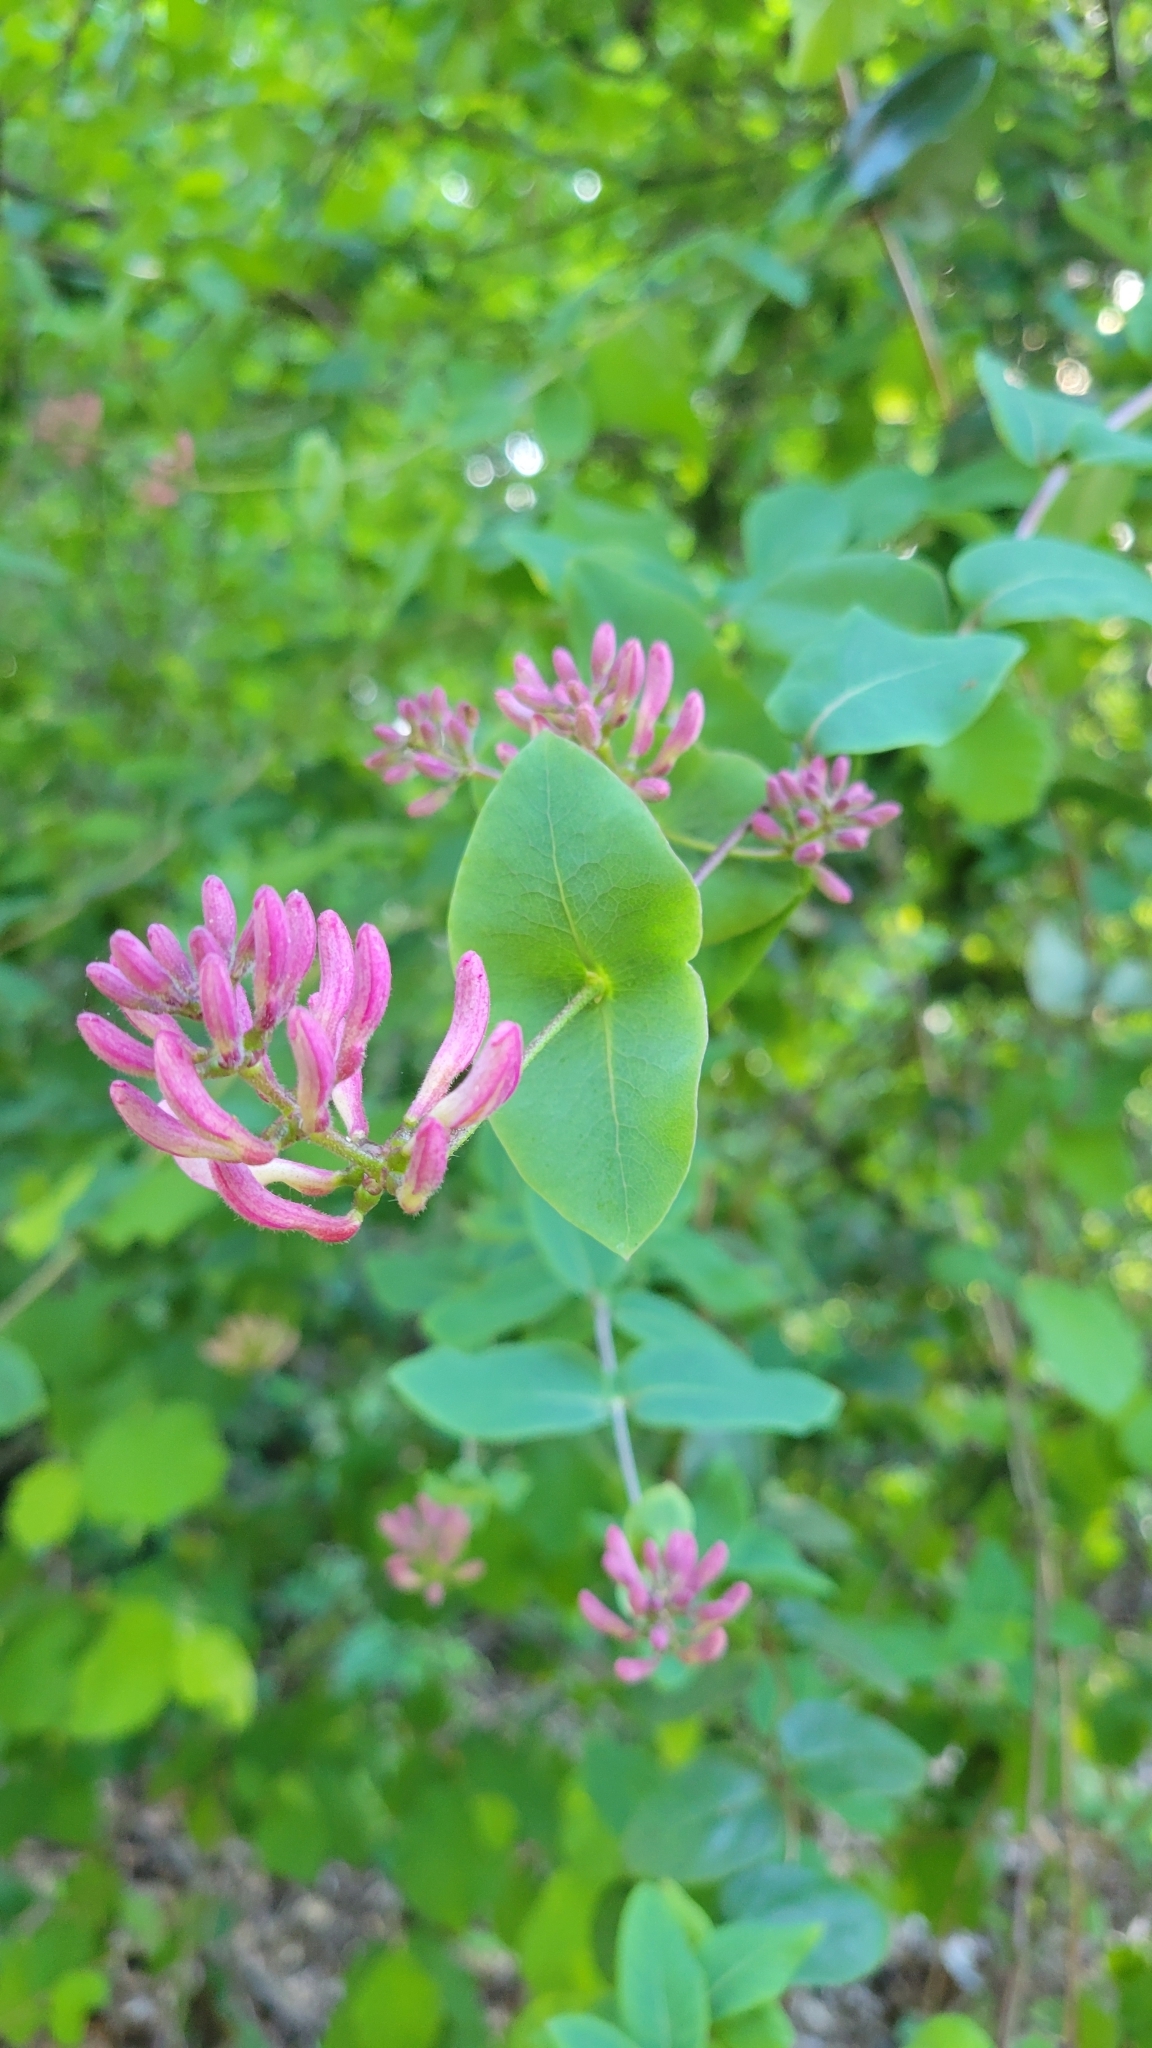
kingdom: Plantae
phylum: Tracheophyta
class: Magnoliopsida
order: Dipsacales
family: Caprifoliaceae
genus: Lonicera
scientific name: Lonicera hispidula
